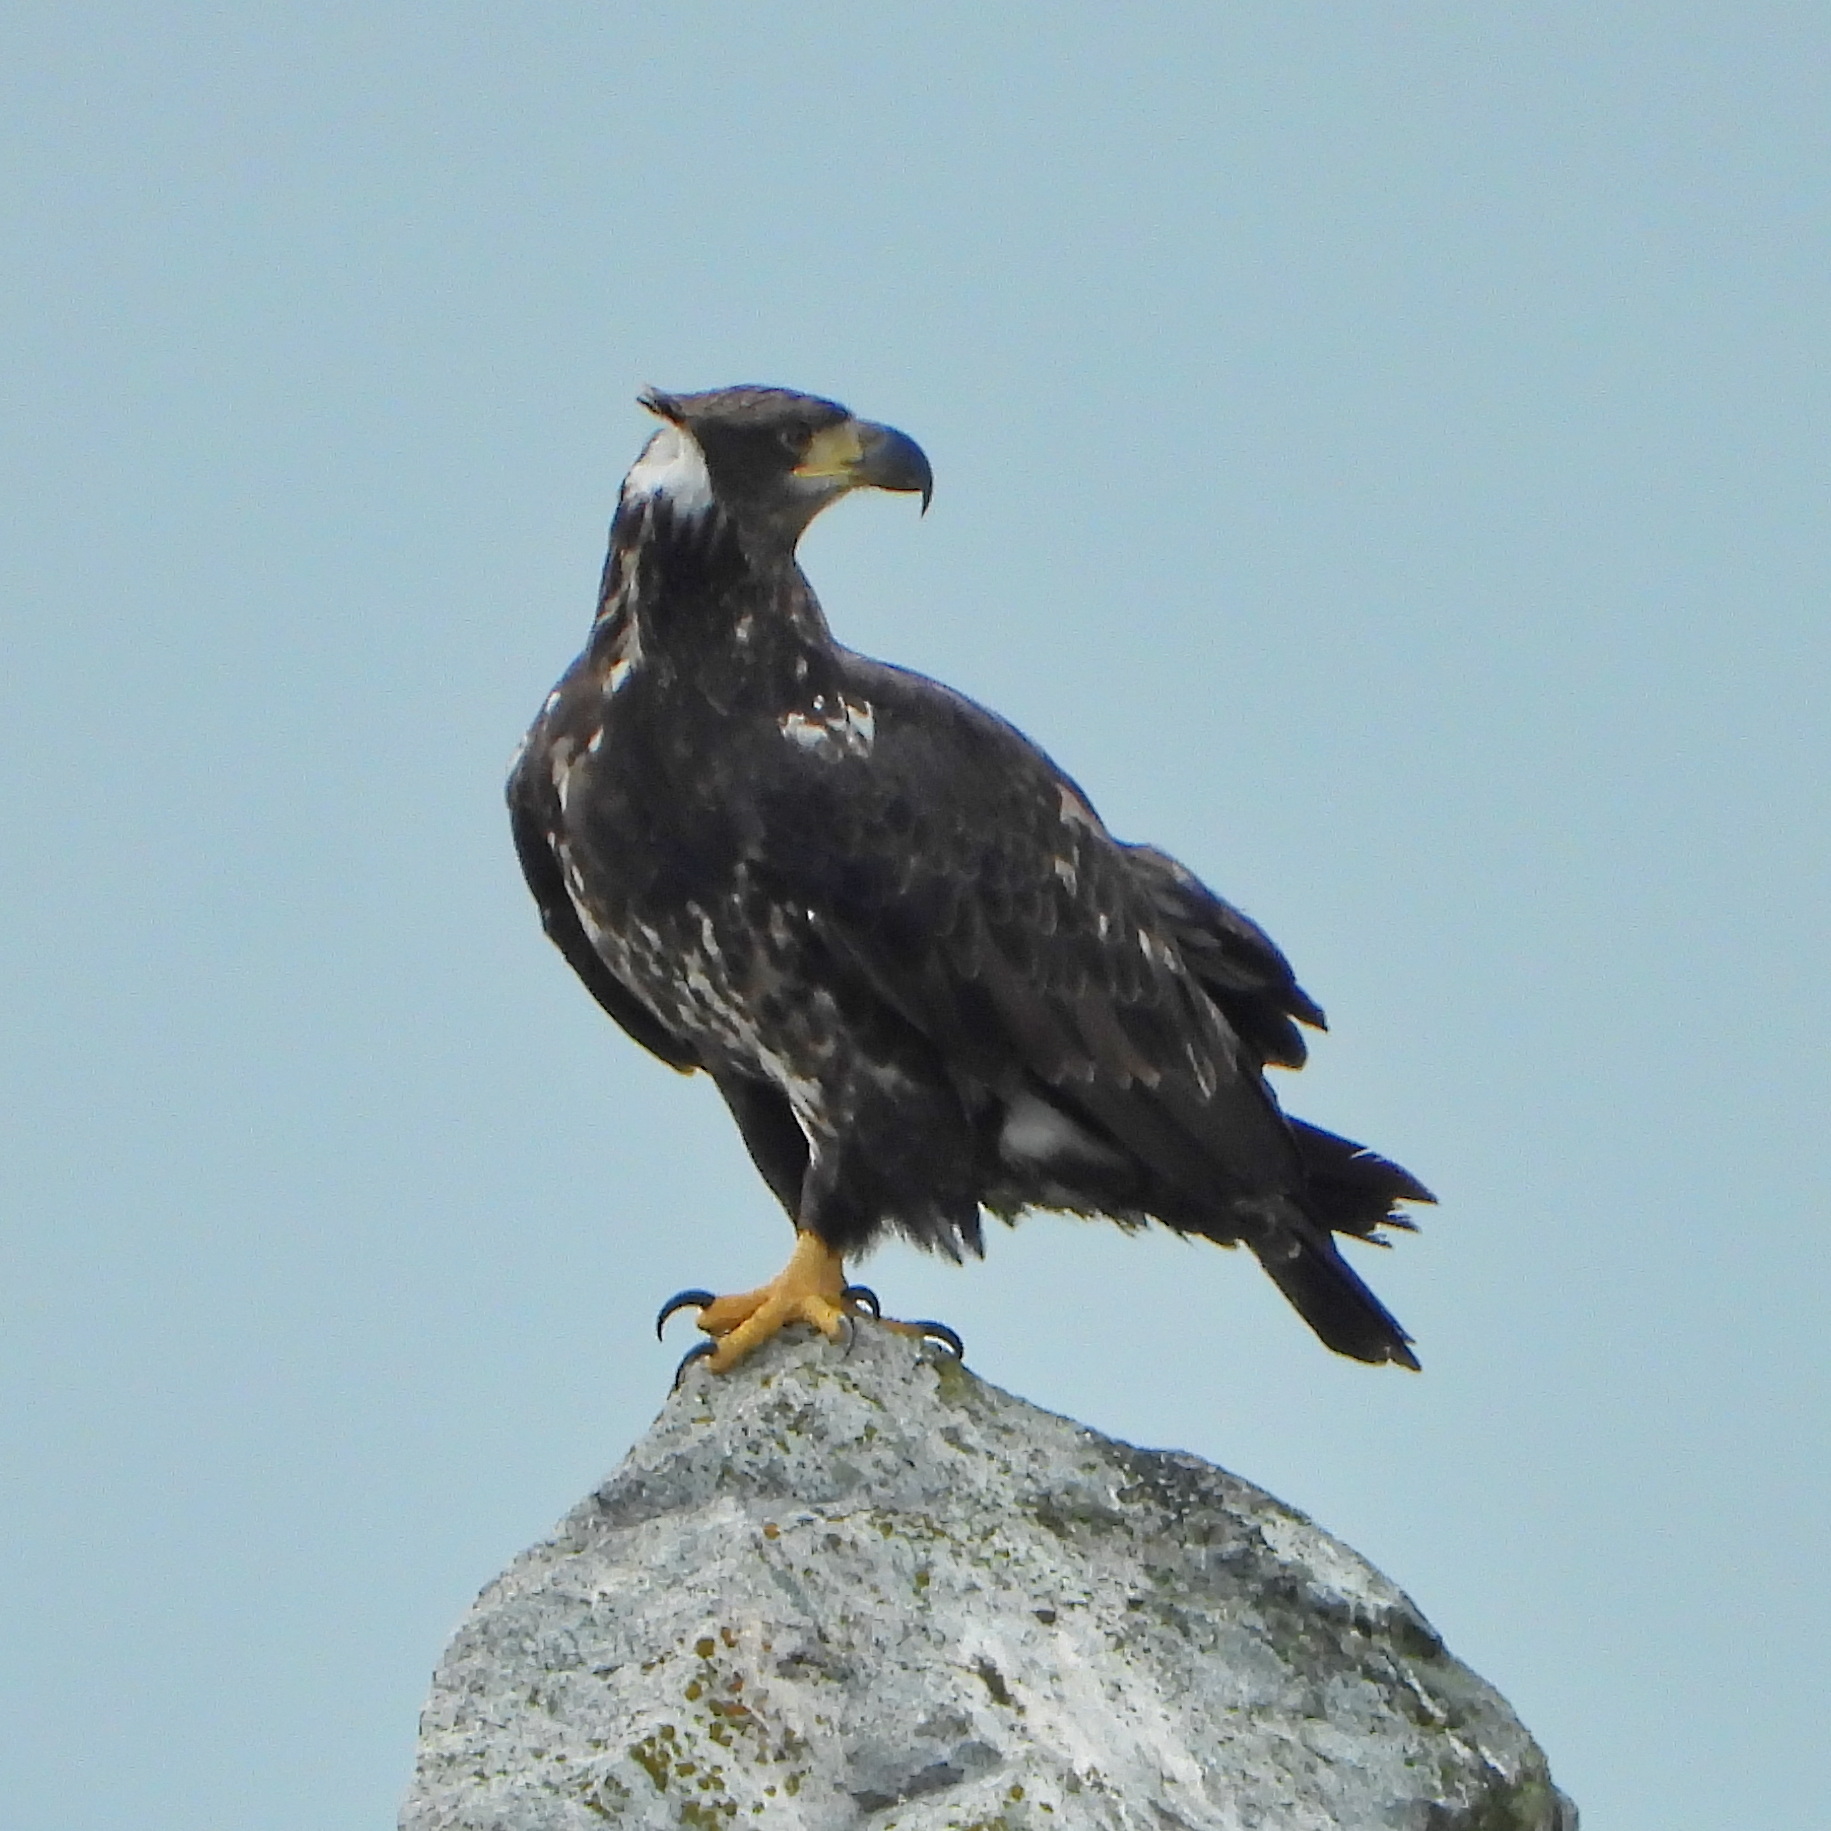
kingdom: Animalia
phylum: Chordata
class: Aves
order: Accipitriformes
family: Accipitridae
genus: Haliaeetus
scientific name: Haliaeetus leucocephalus
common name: Bald eagle
